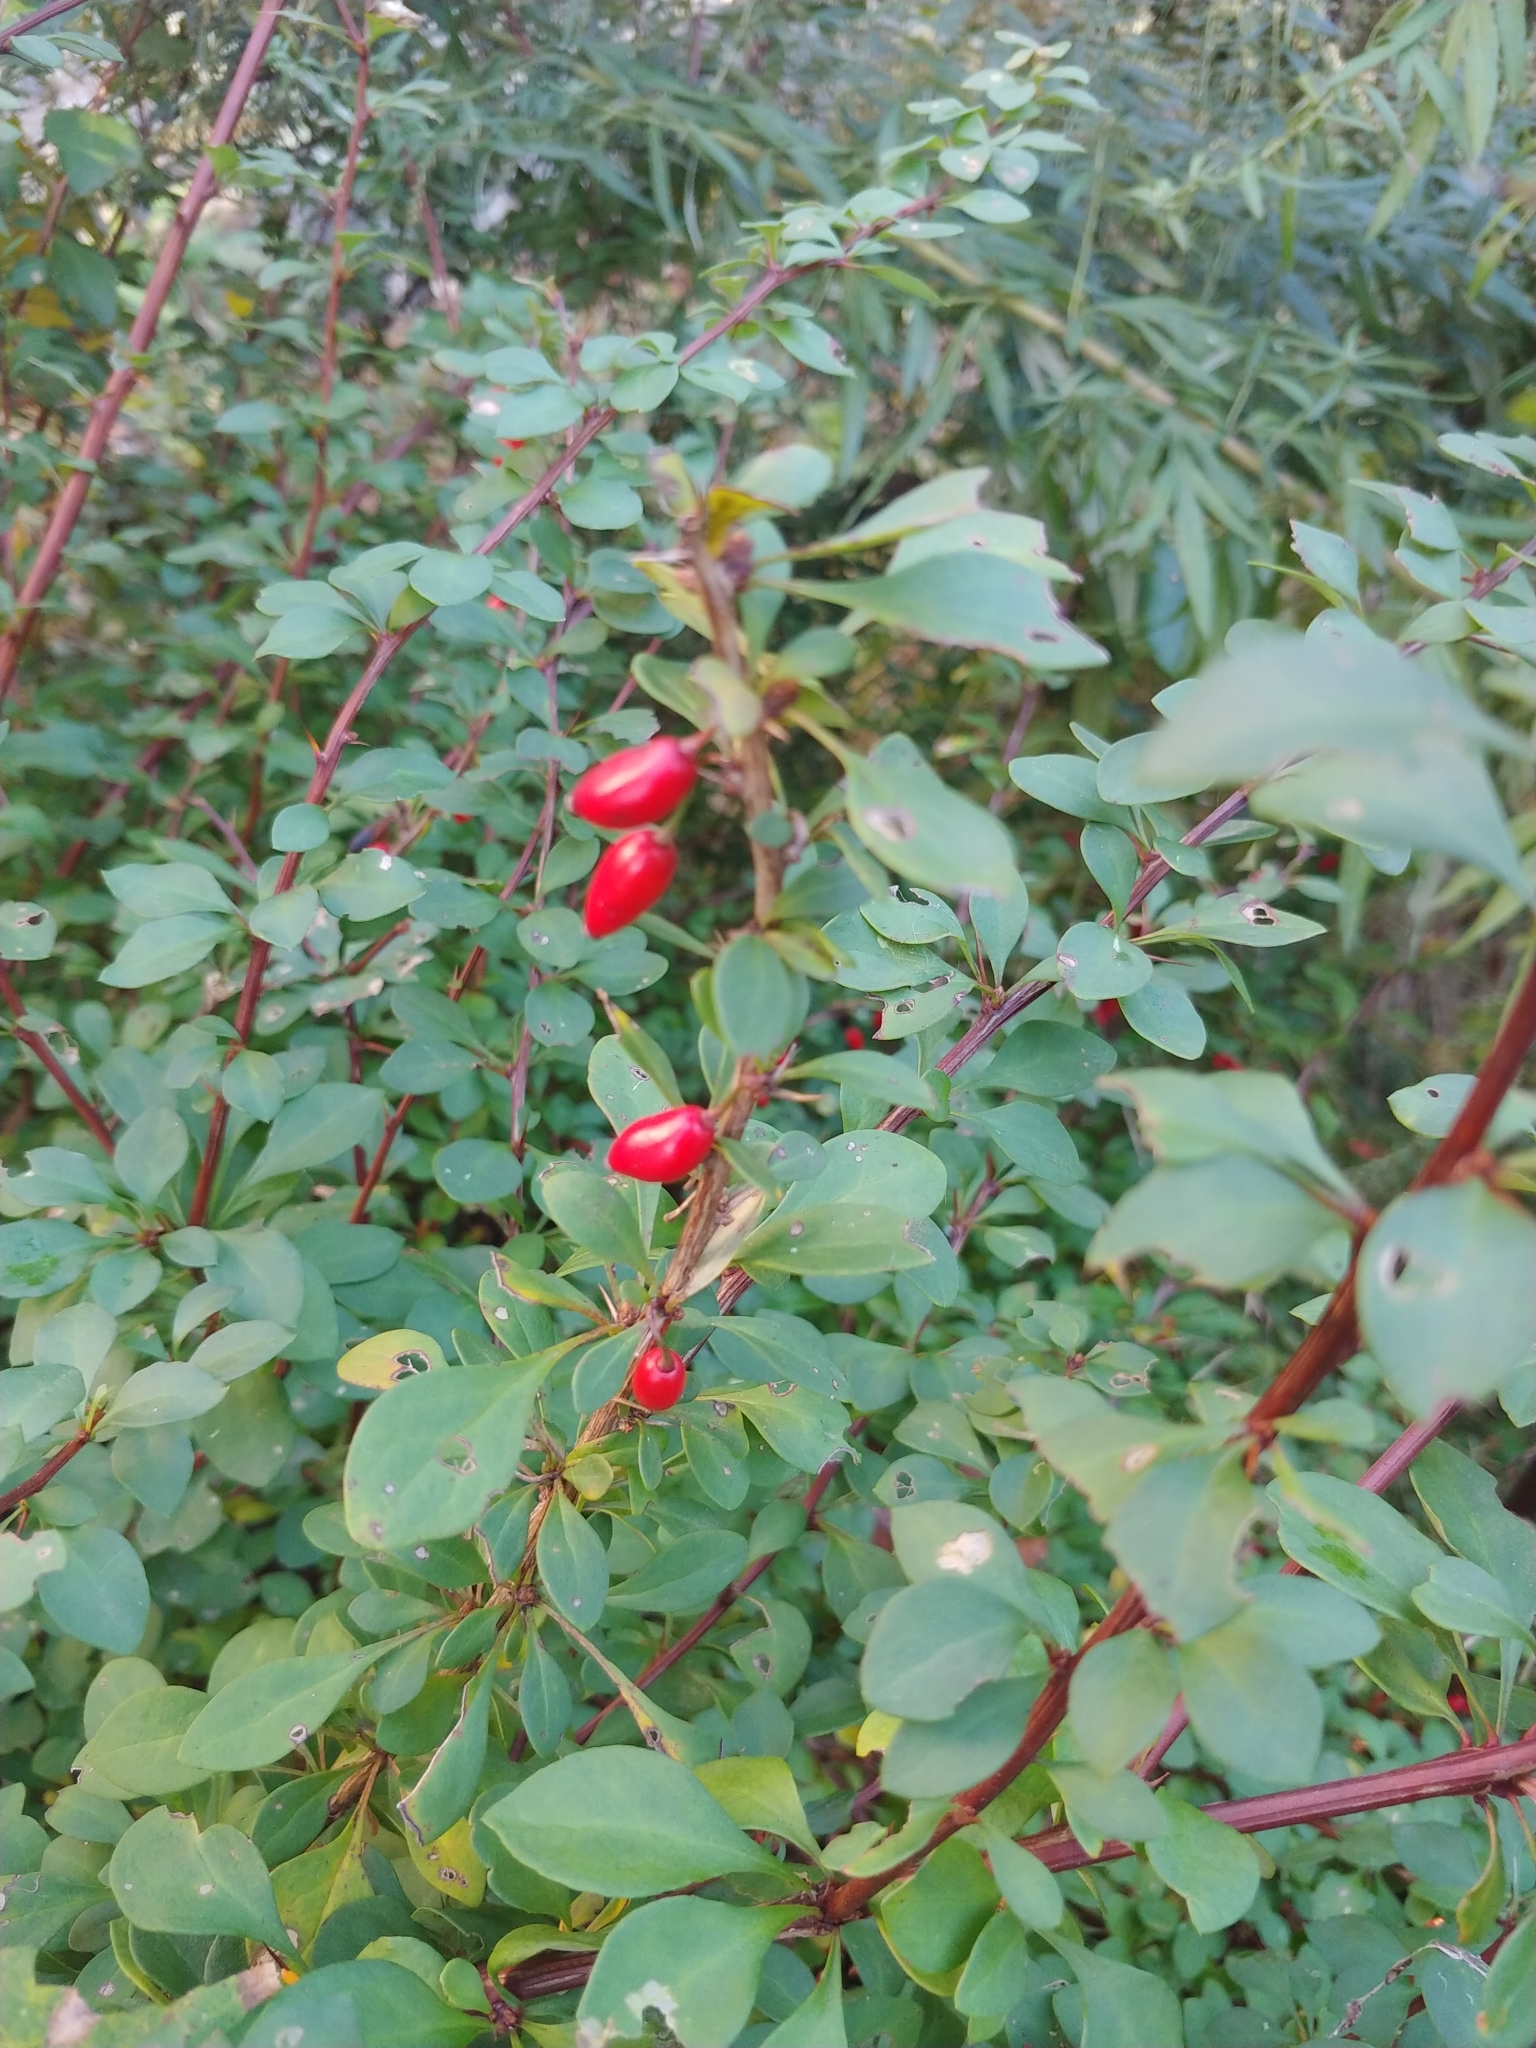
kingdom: Plantae
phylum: Tracheophyta
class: Magnoliopsida
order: Ranunculales
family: Berberidaceae
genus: Berberis
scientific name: Berberis thunbergii
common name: Japanese barberry
